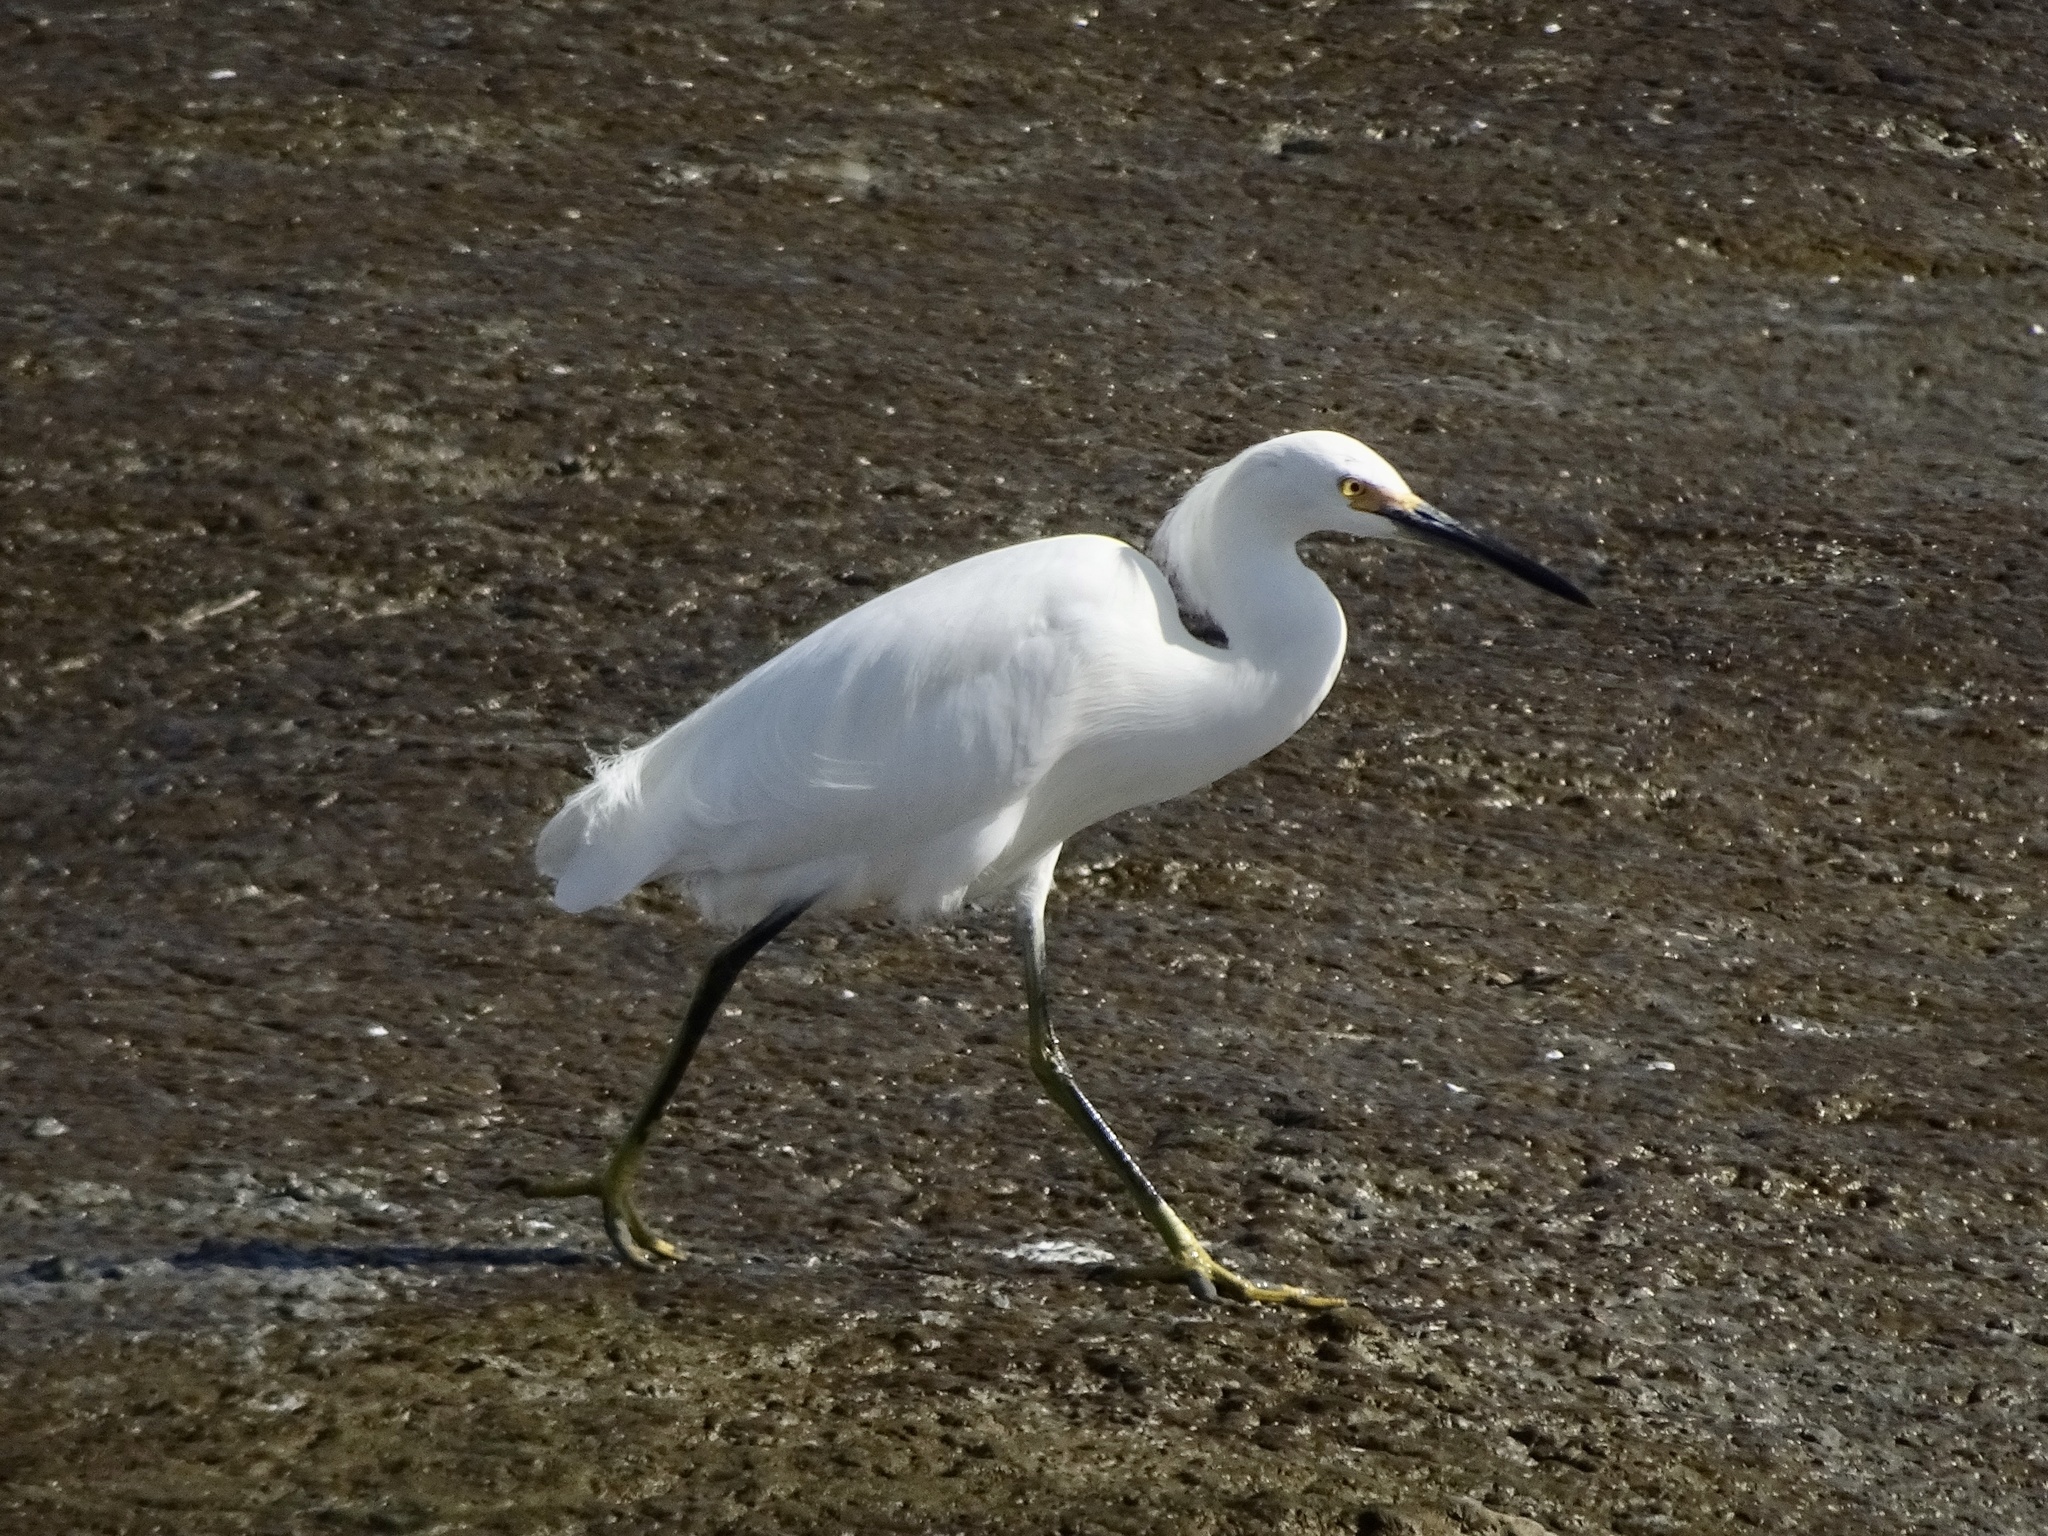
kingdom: Animalia
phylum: Chordata
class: Aves
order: Pelecaniformes
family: Ardeidae
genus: Egretta
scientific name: Egretta thula
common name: Snowy egret
